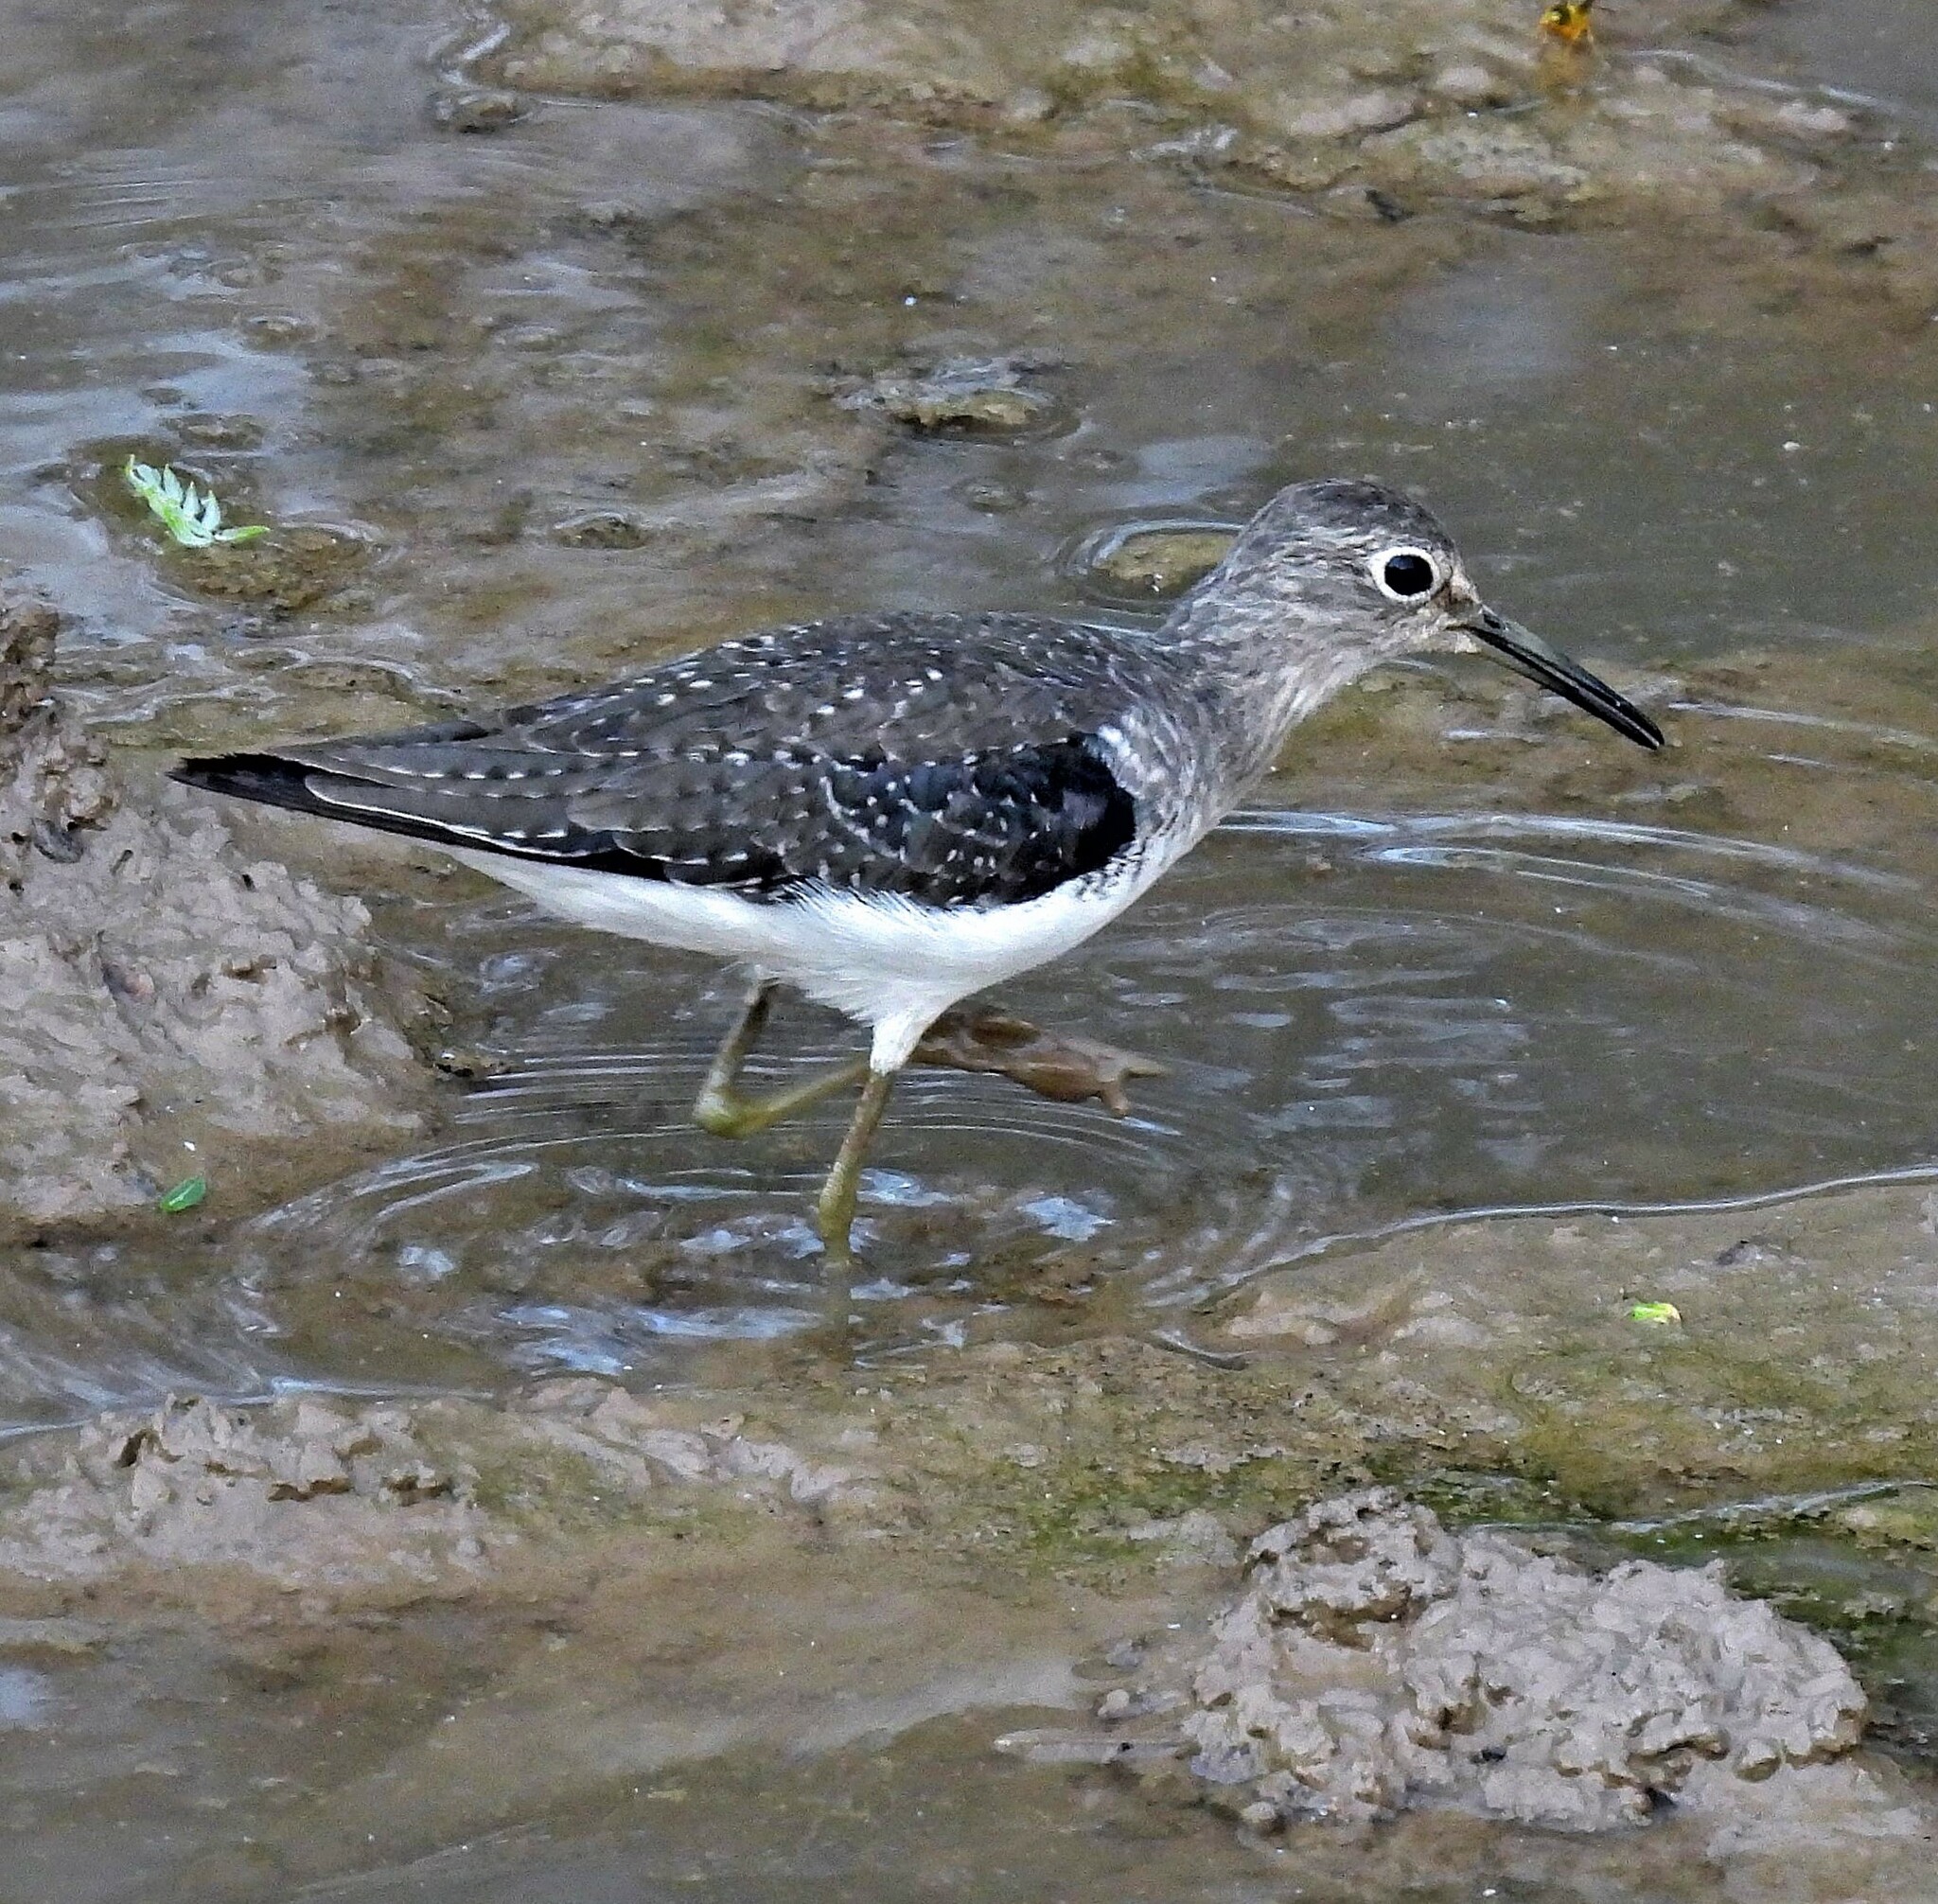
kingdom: Animalia
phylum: Chordata
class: Aves
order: Charadriiformes
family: Scolopacidae
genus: Tringa
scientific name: Tringa solitaria
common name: Solitary sandpiper
